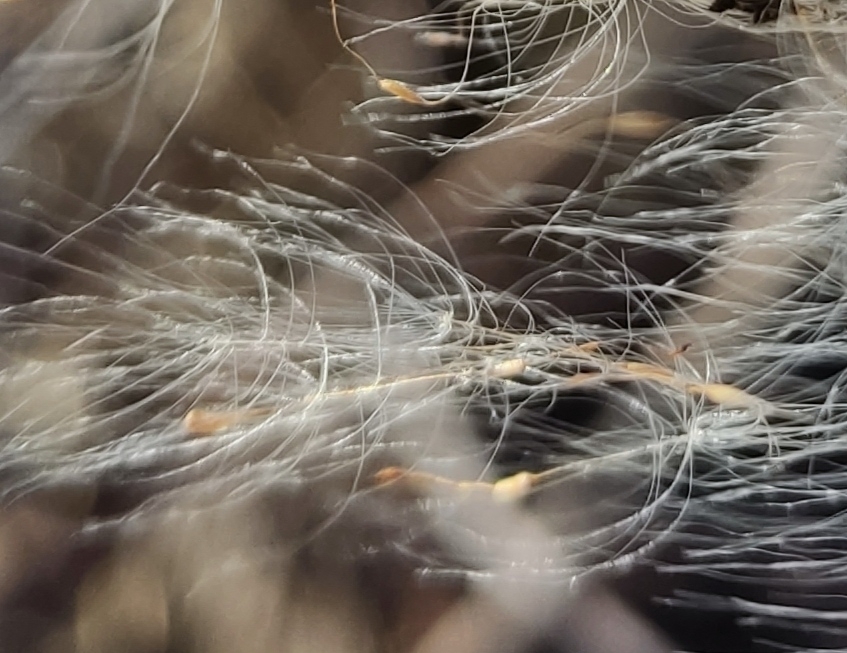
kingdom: Plantae
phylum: Tracheophyta
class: Liliopsida
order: Poales
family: Typhaceae
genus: Typha
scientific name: Typha latifolia
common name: Broadleaf cattail
